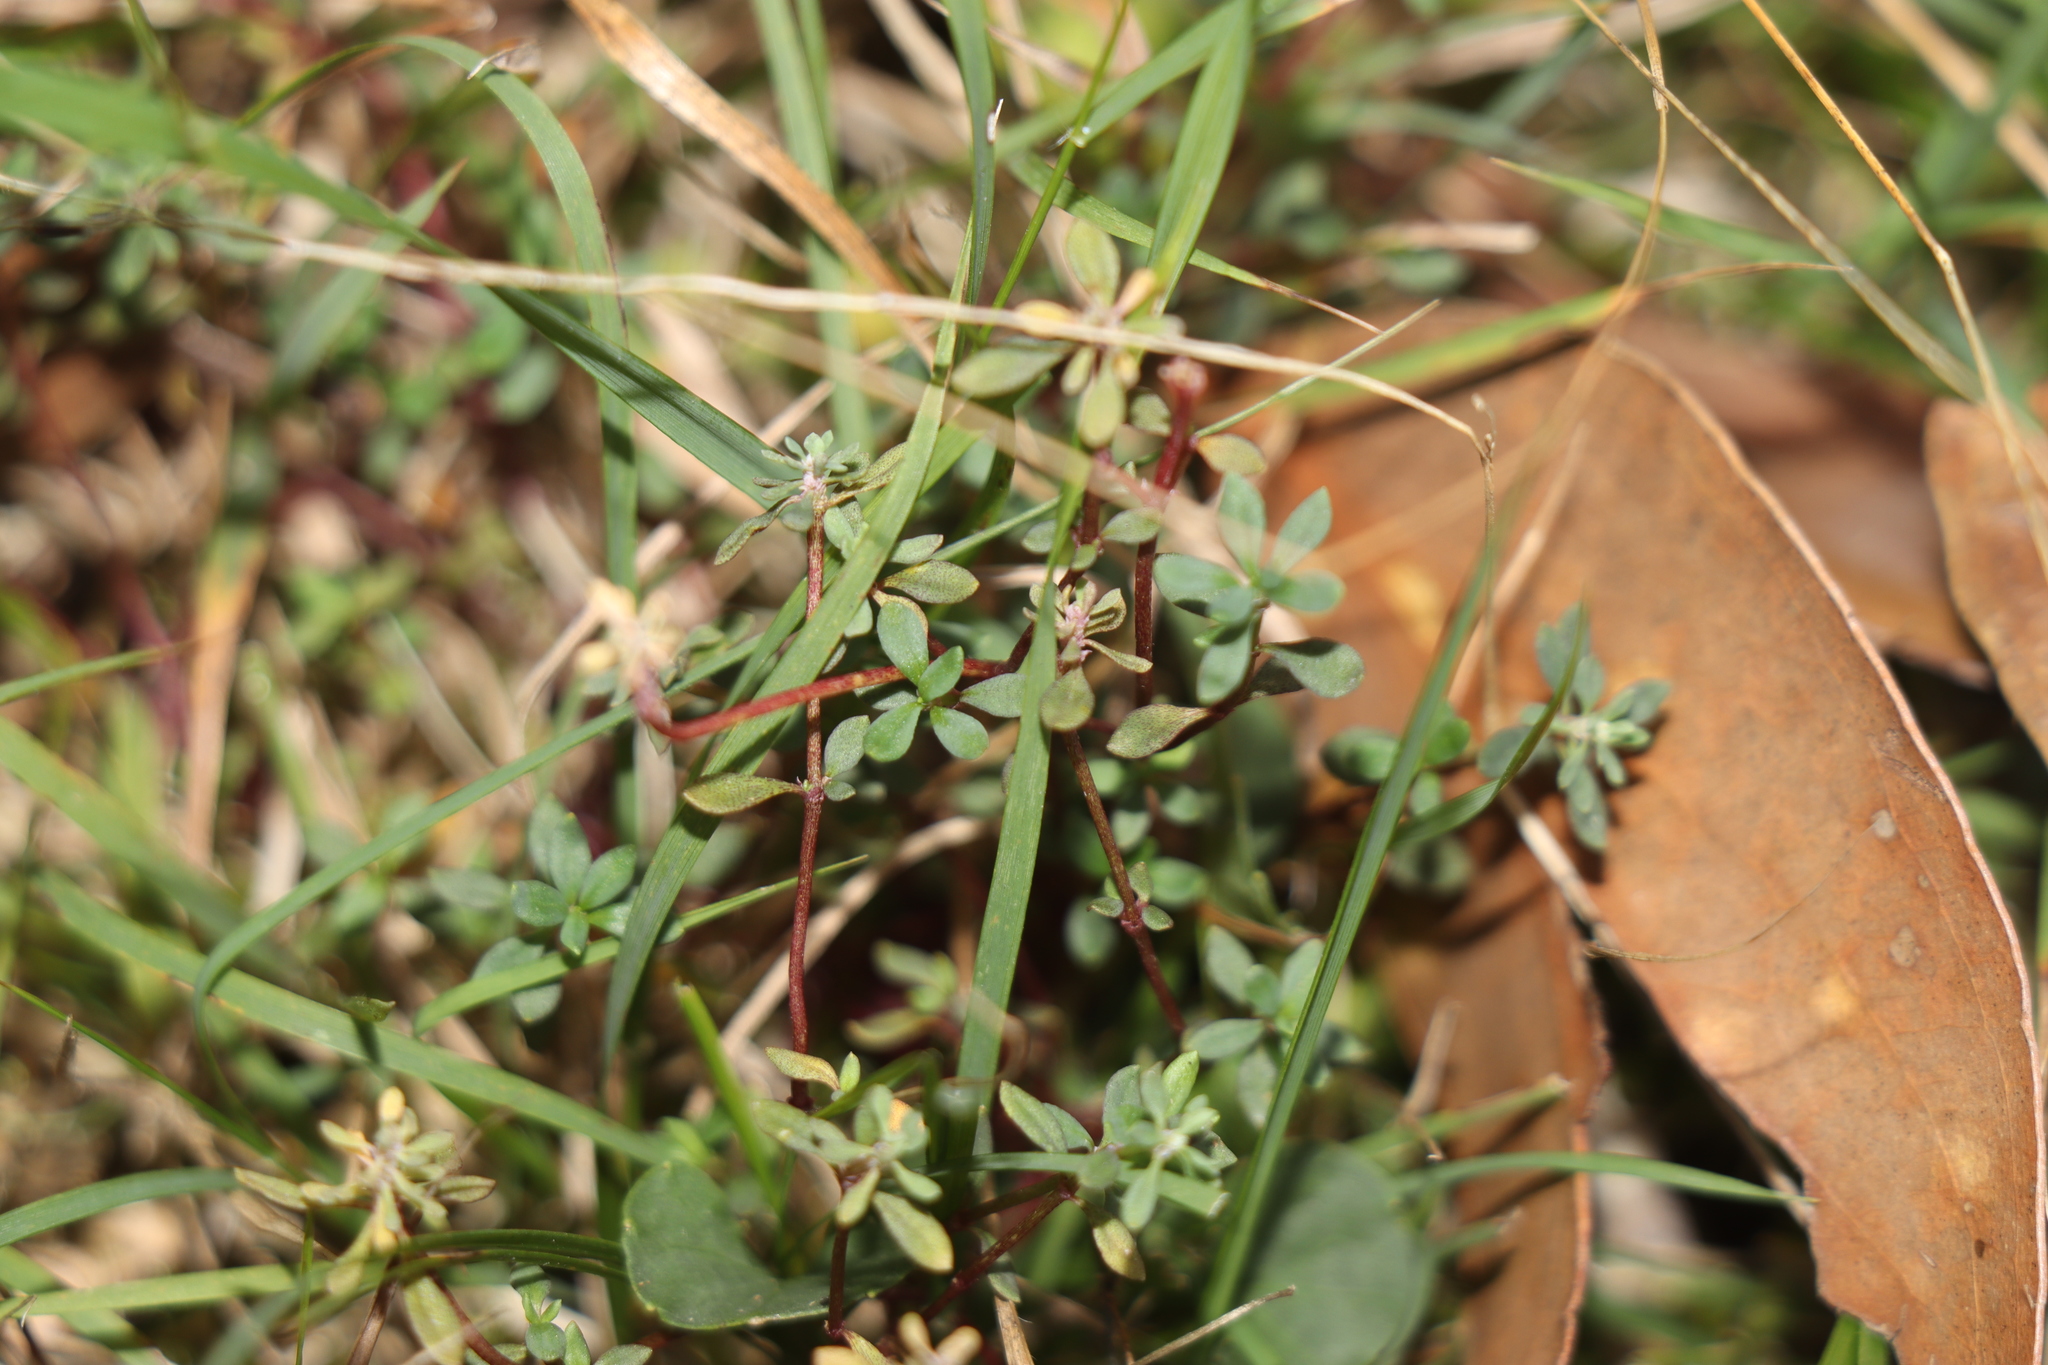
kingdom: Plantae
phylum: Tracheophyta
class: Magnoliopsida
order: Malpighiales
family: Phyllanthaceae
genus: Poranthera
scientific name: Poranthera microphylla
